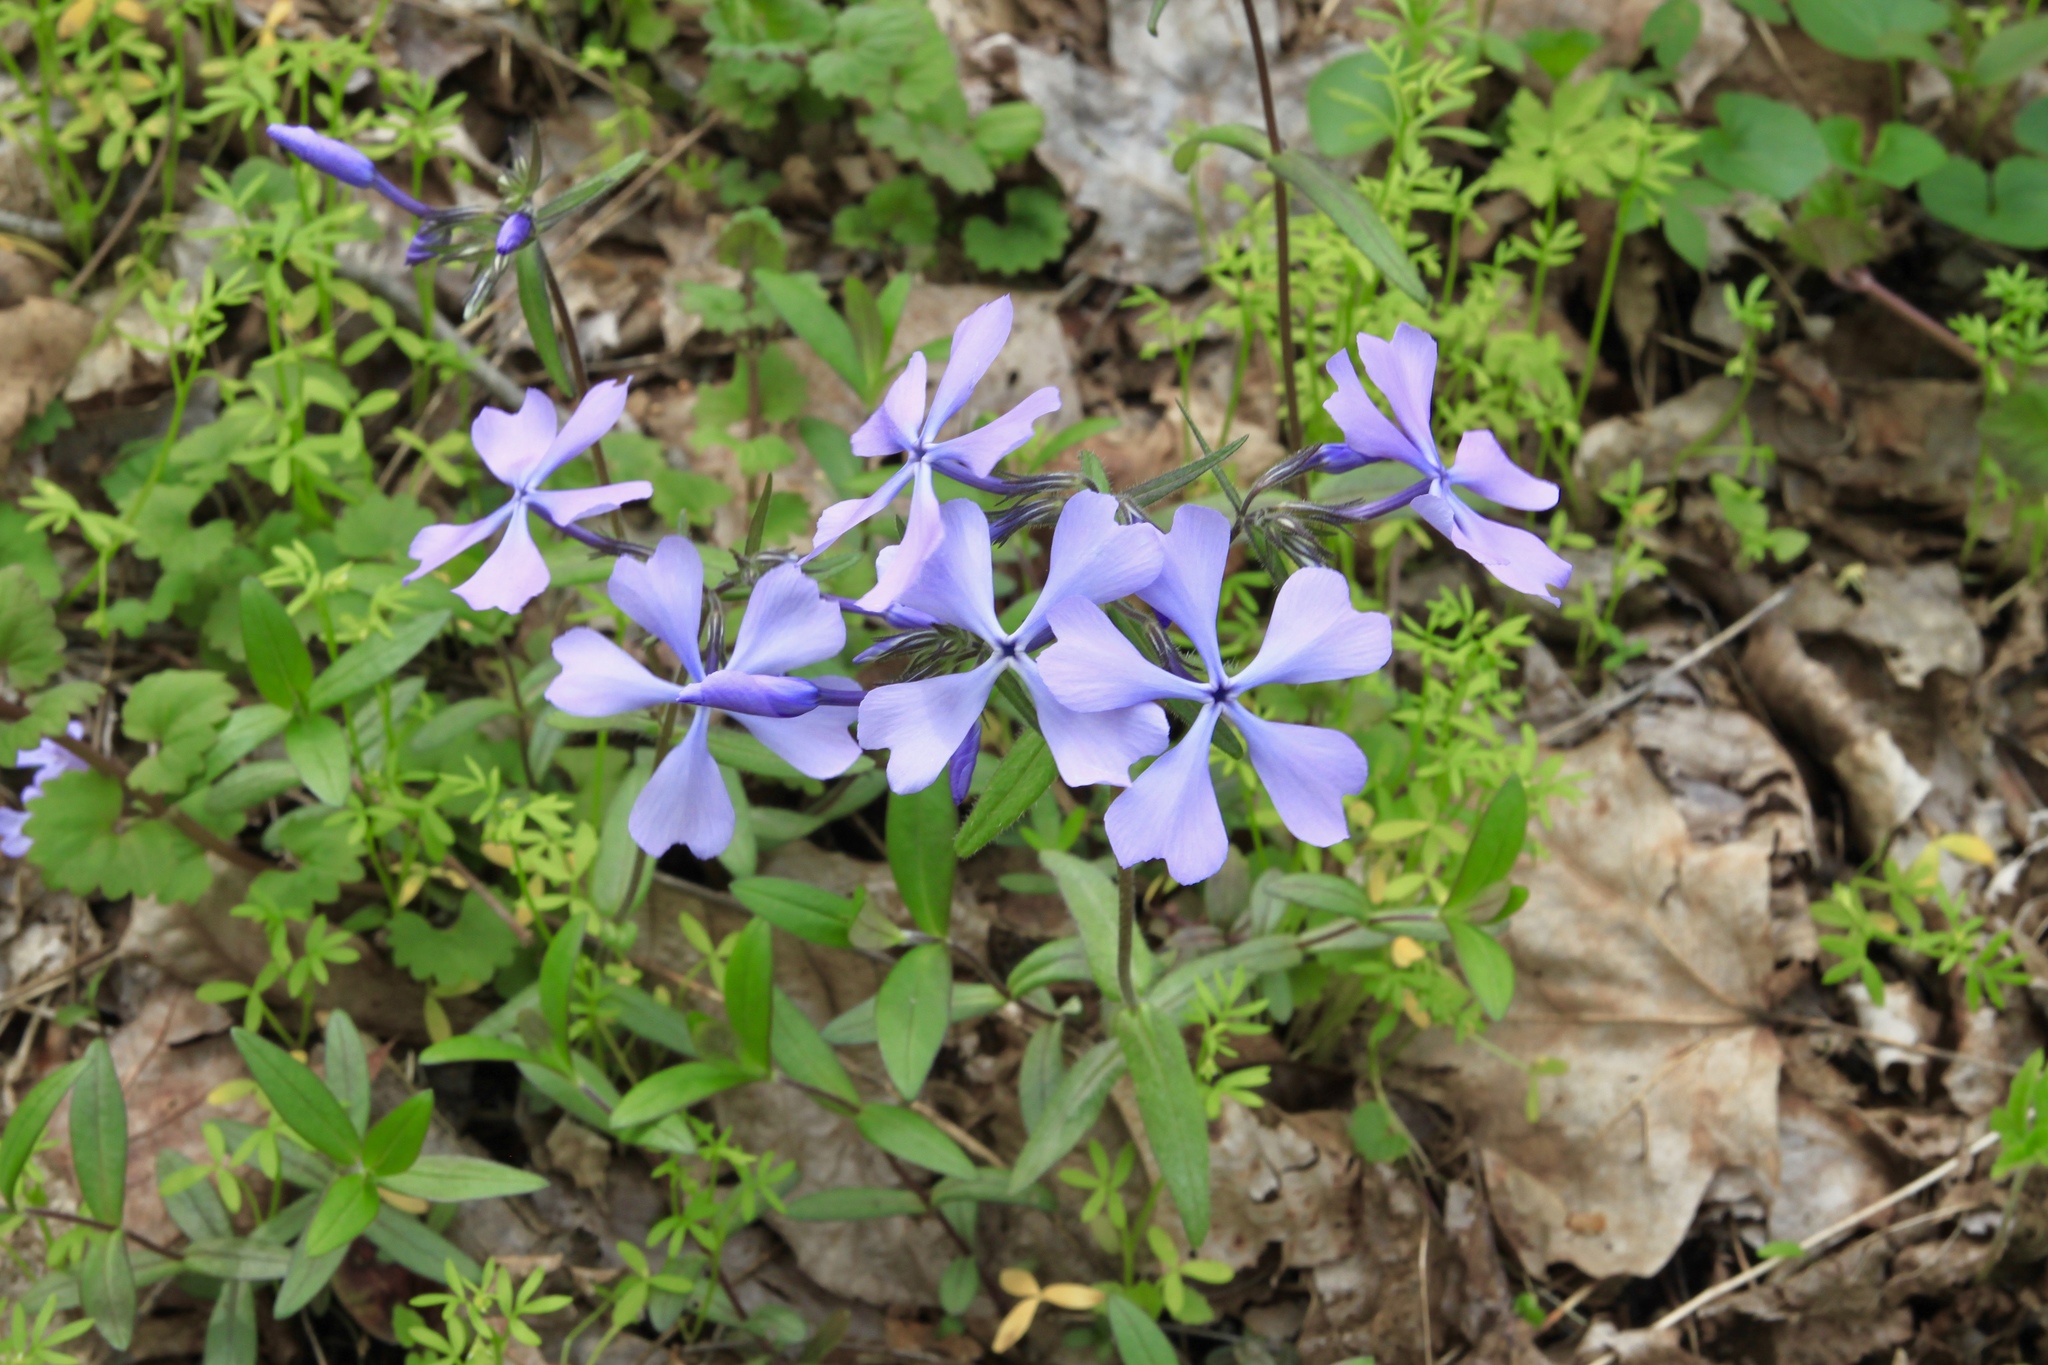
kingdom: Plantae
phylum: Tracheophyta
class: Magnoliopsida
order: Ericales
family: Polemoniaceae
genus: Phlox
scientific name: Phlox divaricata
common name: Blue phlox
